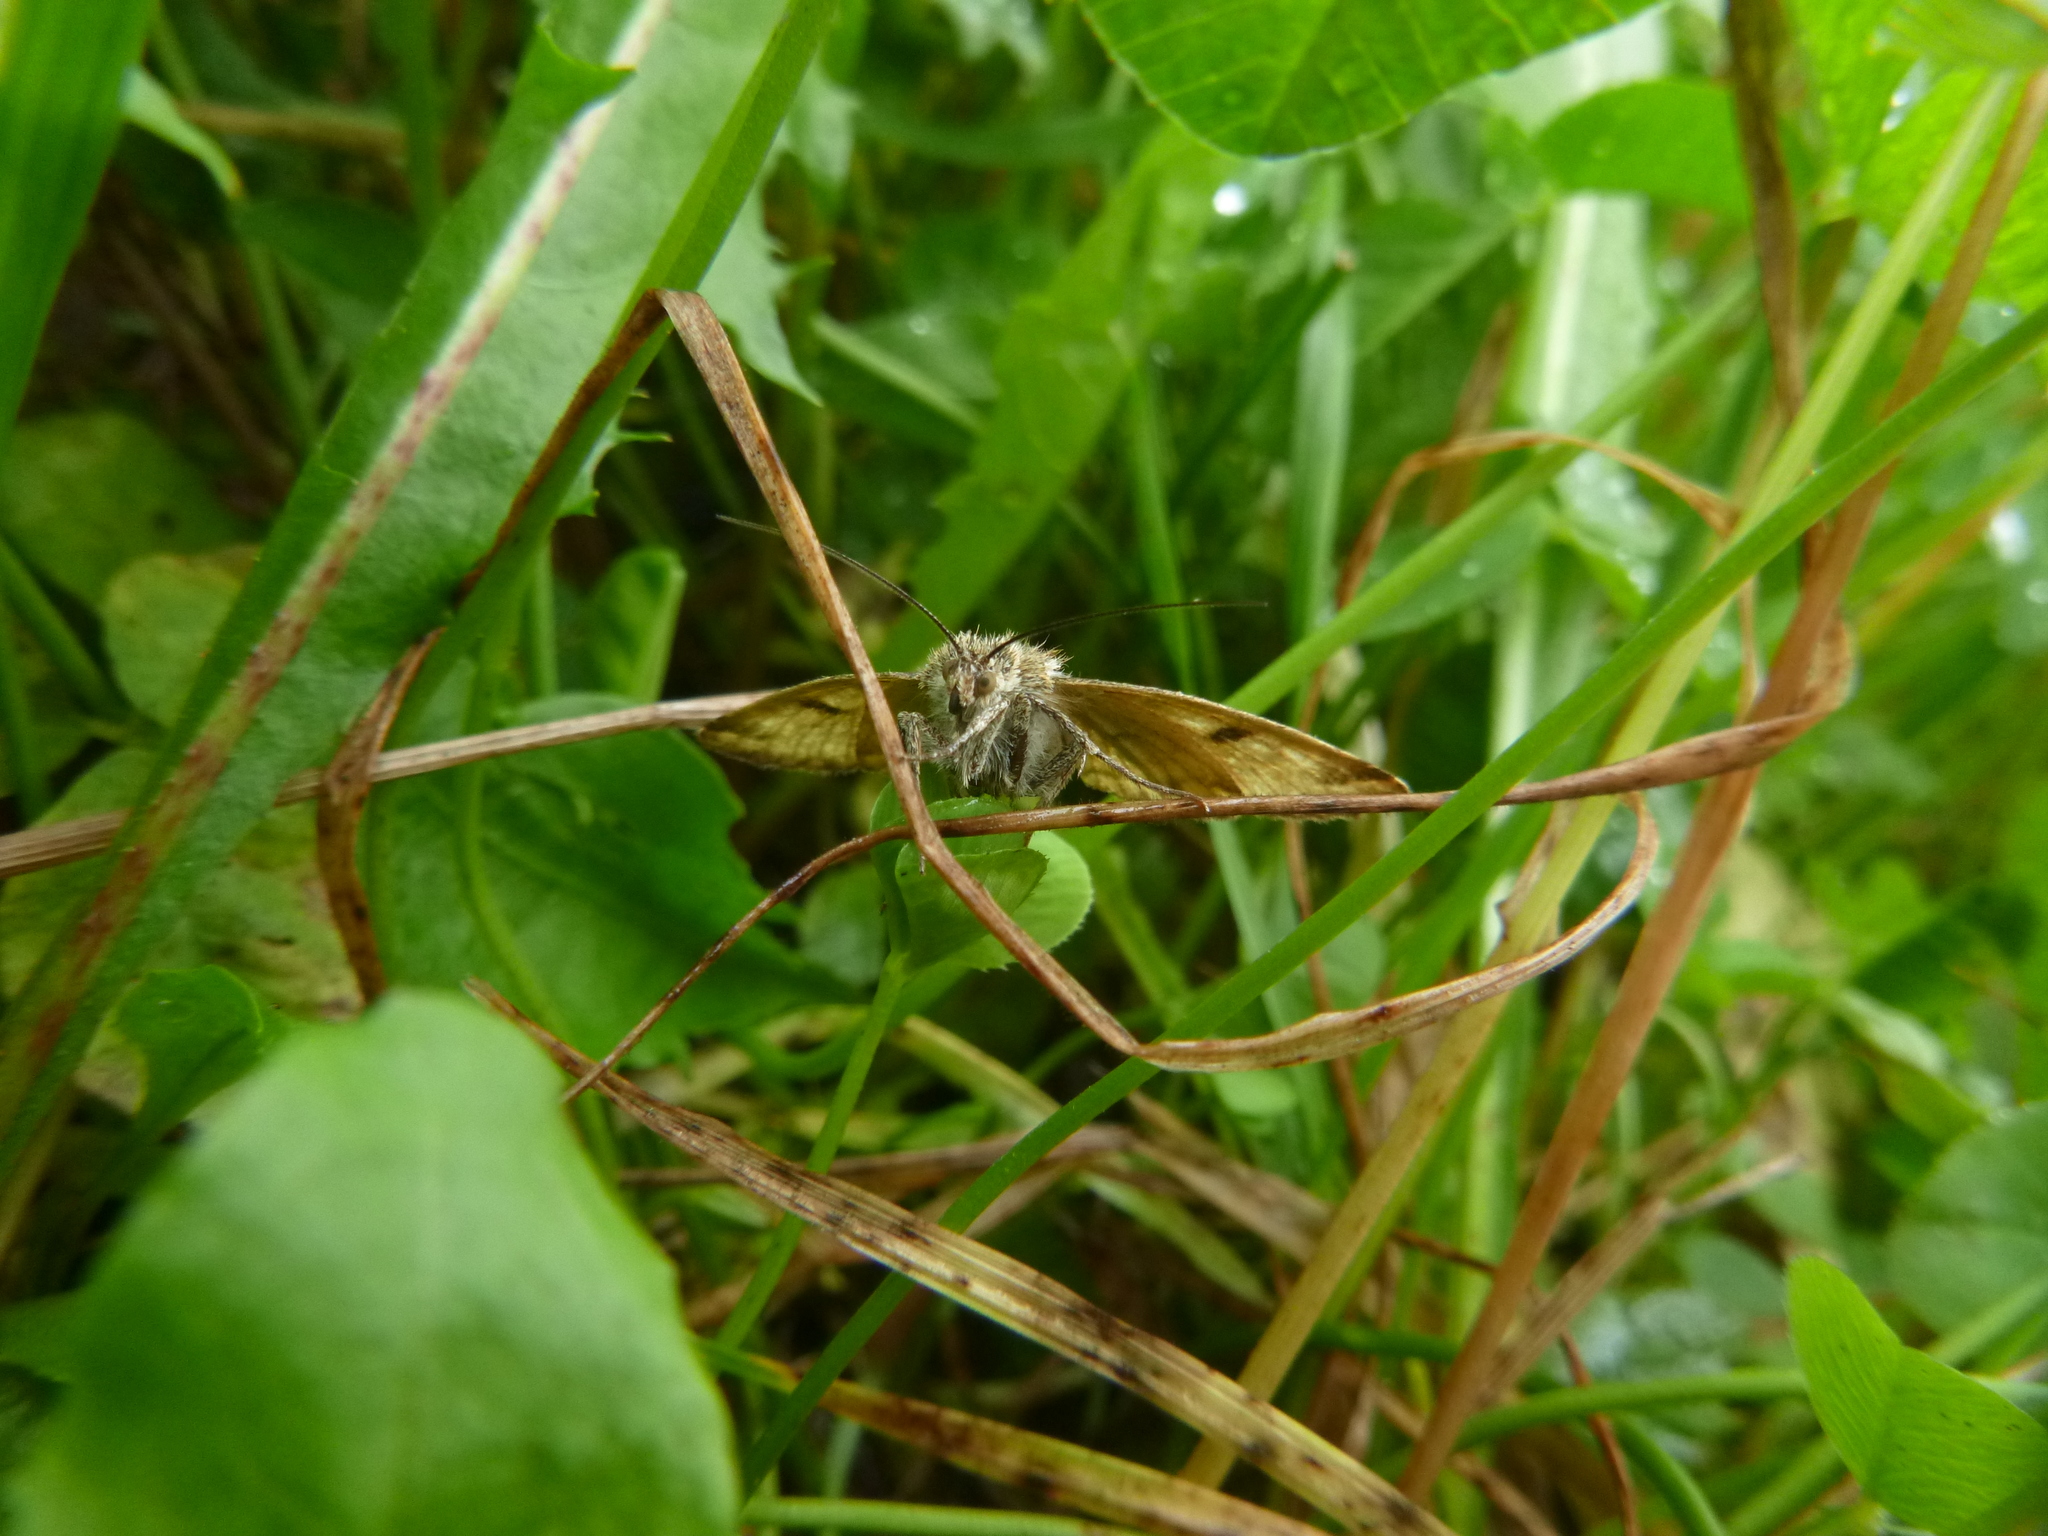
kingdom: Animalia
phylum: Arthropoda
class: Insecta
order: Lepidoptera
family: Erebidae
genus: Euclidia
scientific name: Euclidia glyphica
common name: Burnet companion
